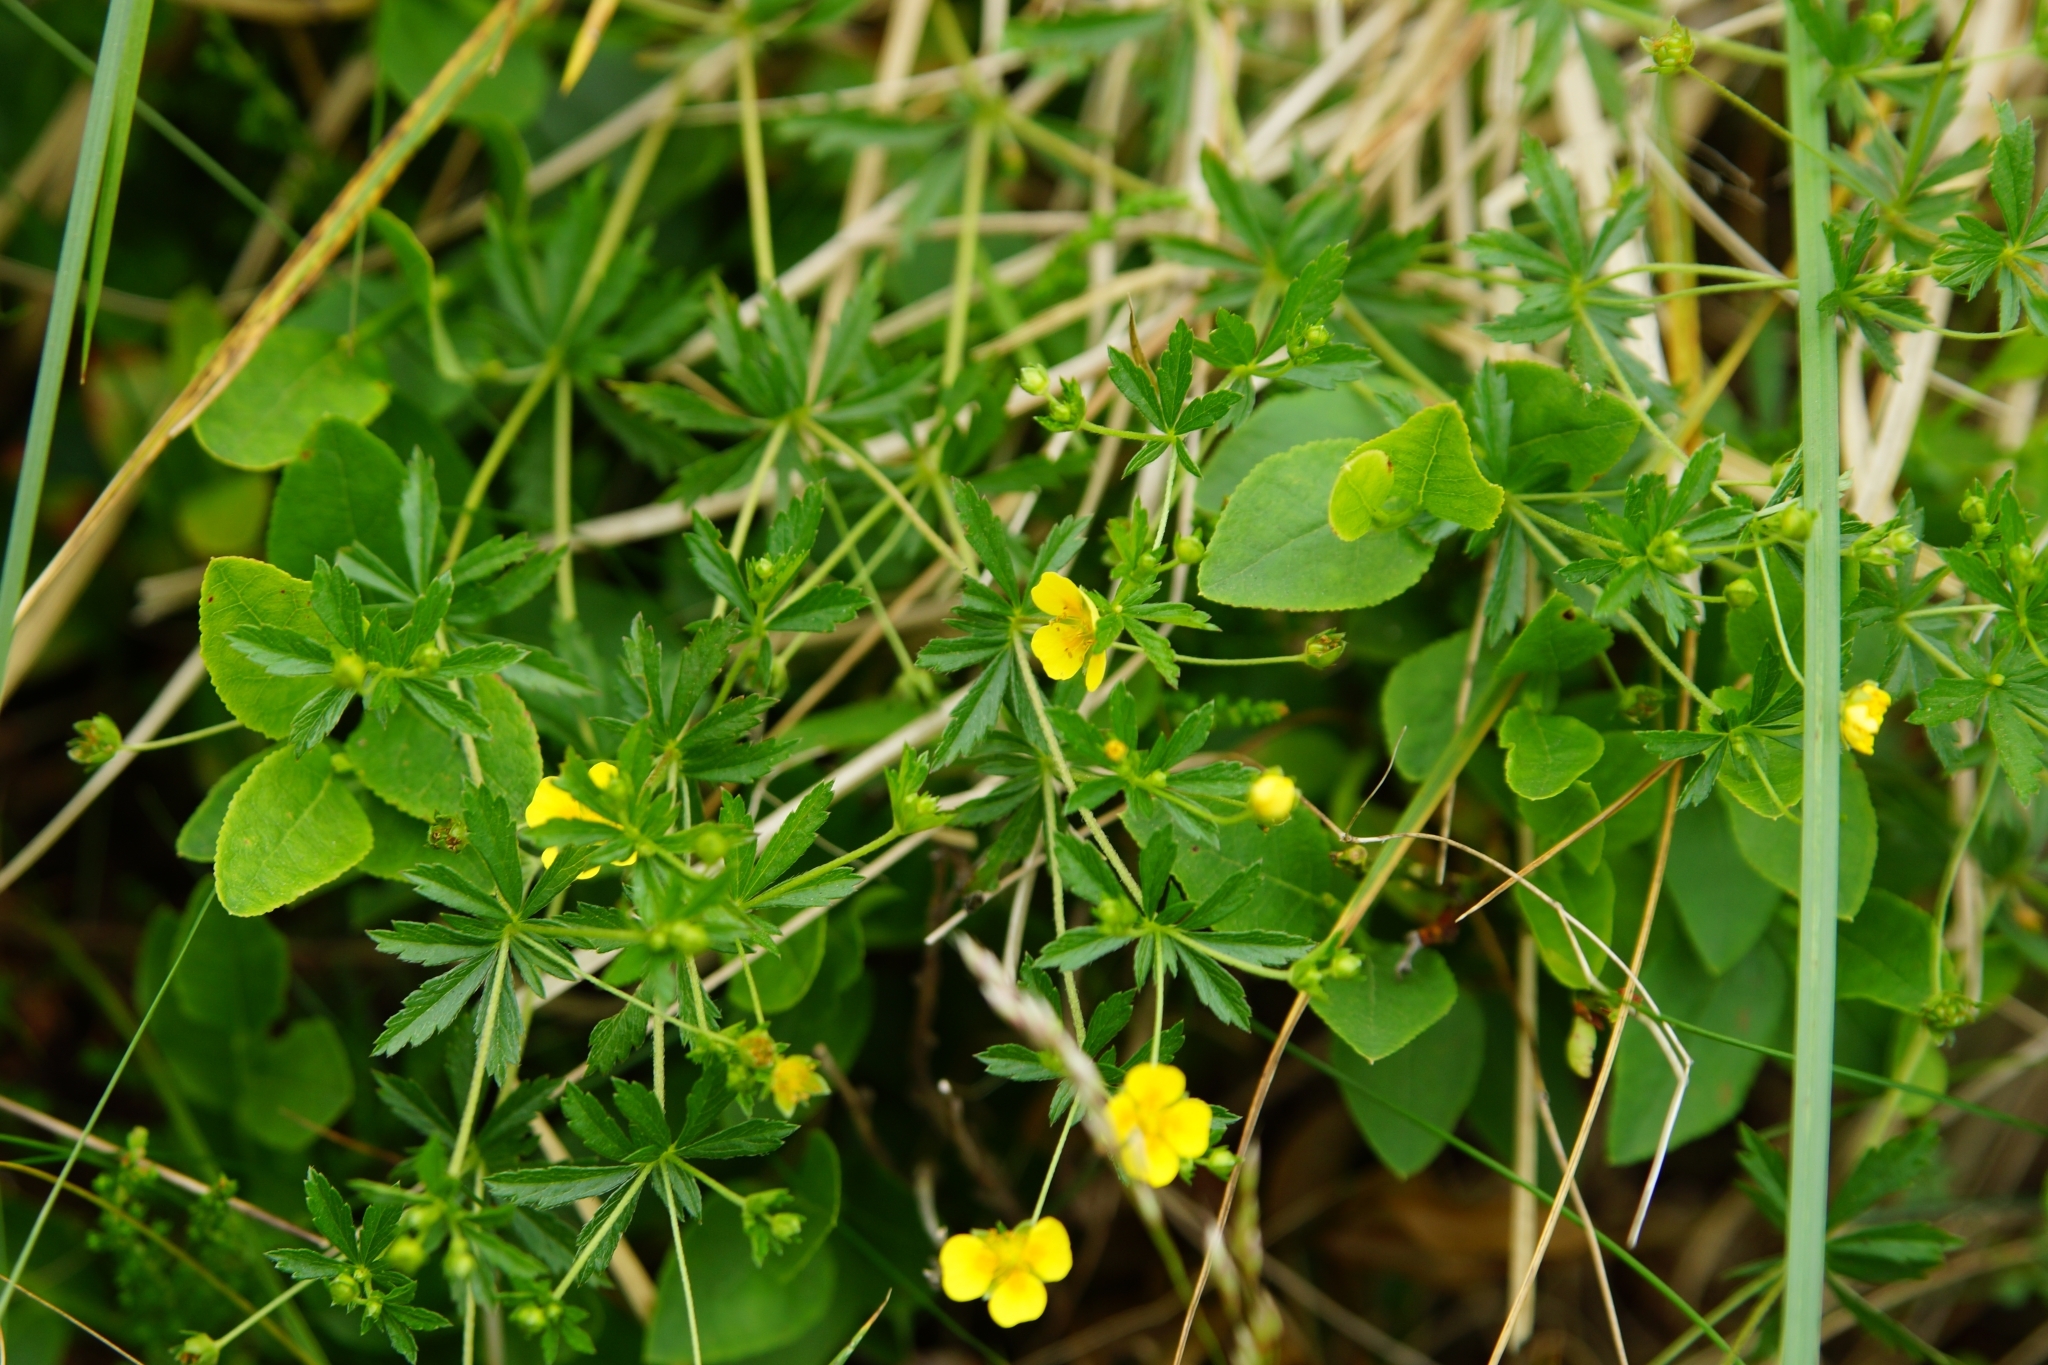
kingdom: Plantae
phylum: Tracheophyta
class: Magnoliopsida
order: Rosales
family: Rosaceae
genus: Potentilla
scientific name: Potentilla erecta
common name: Tormentil
